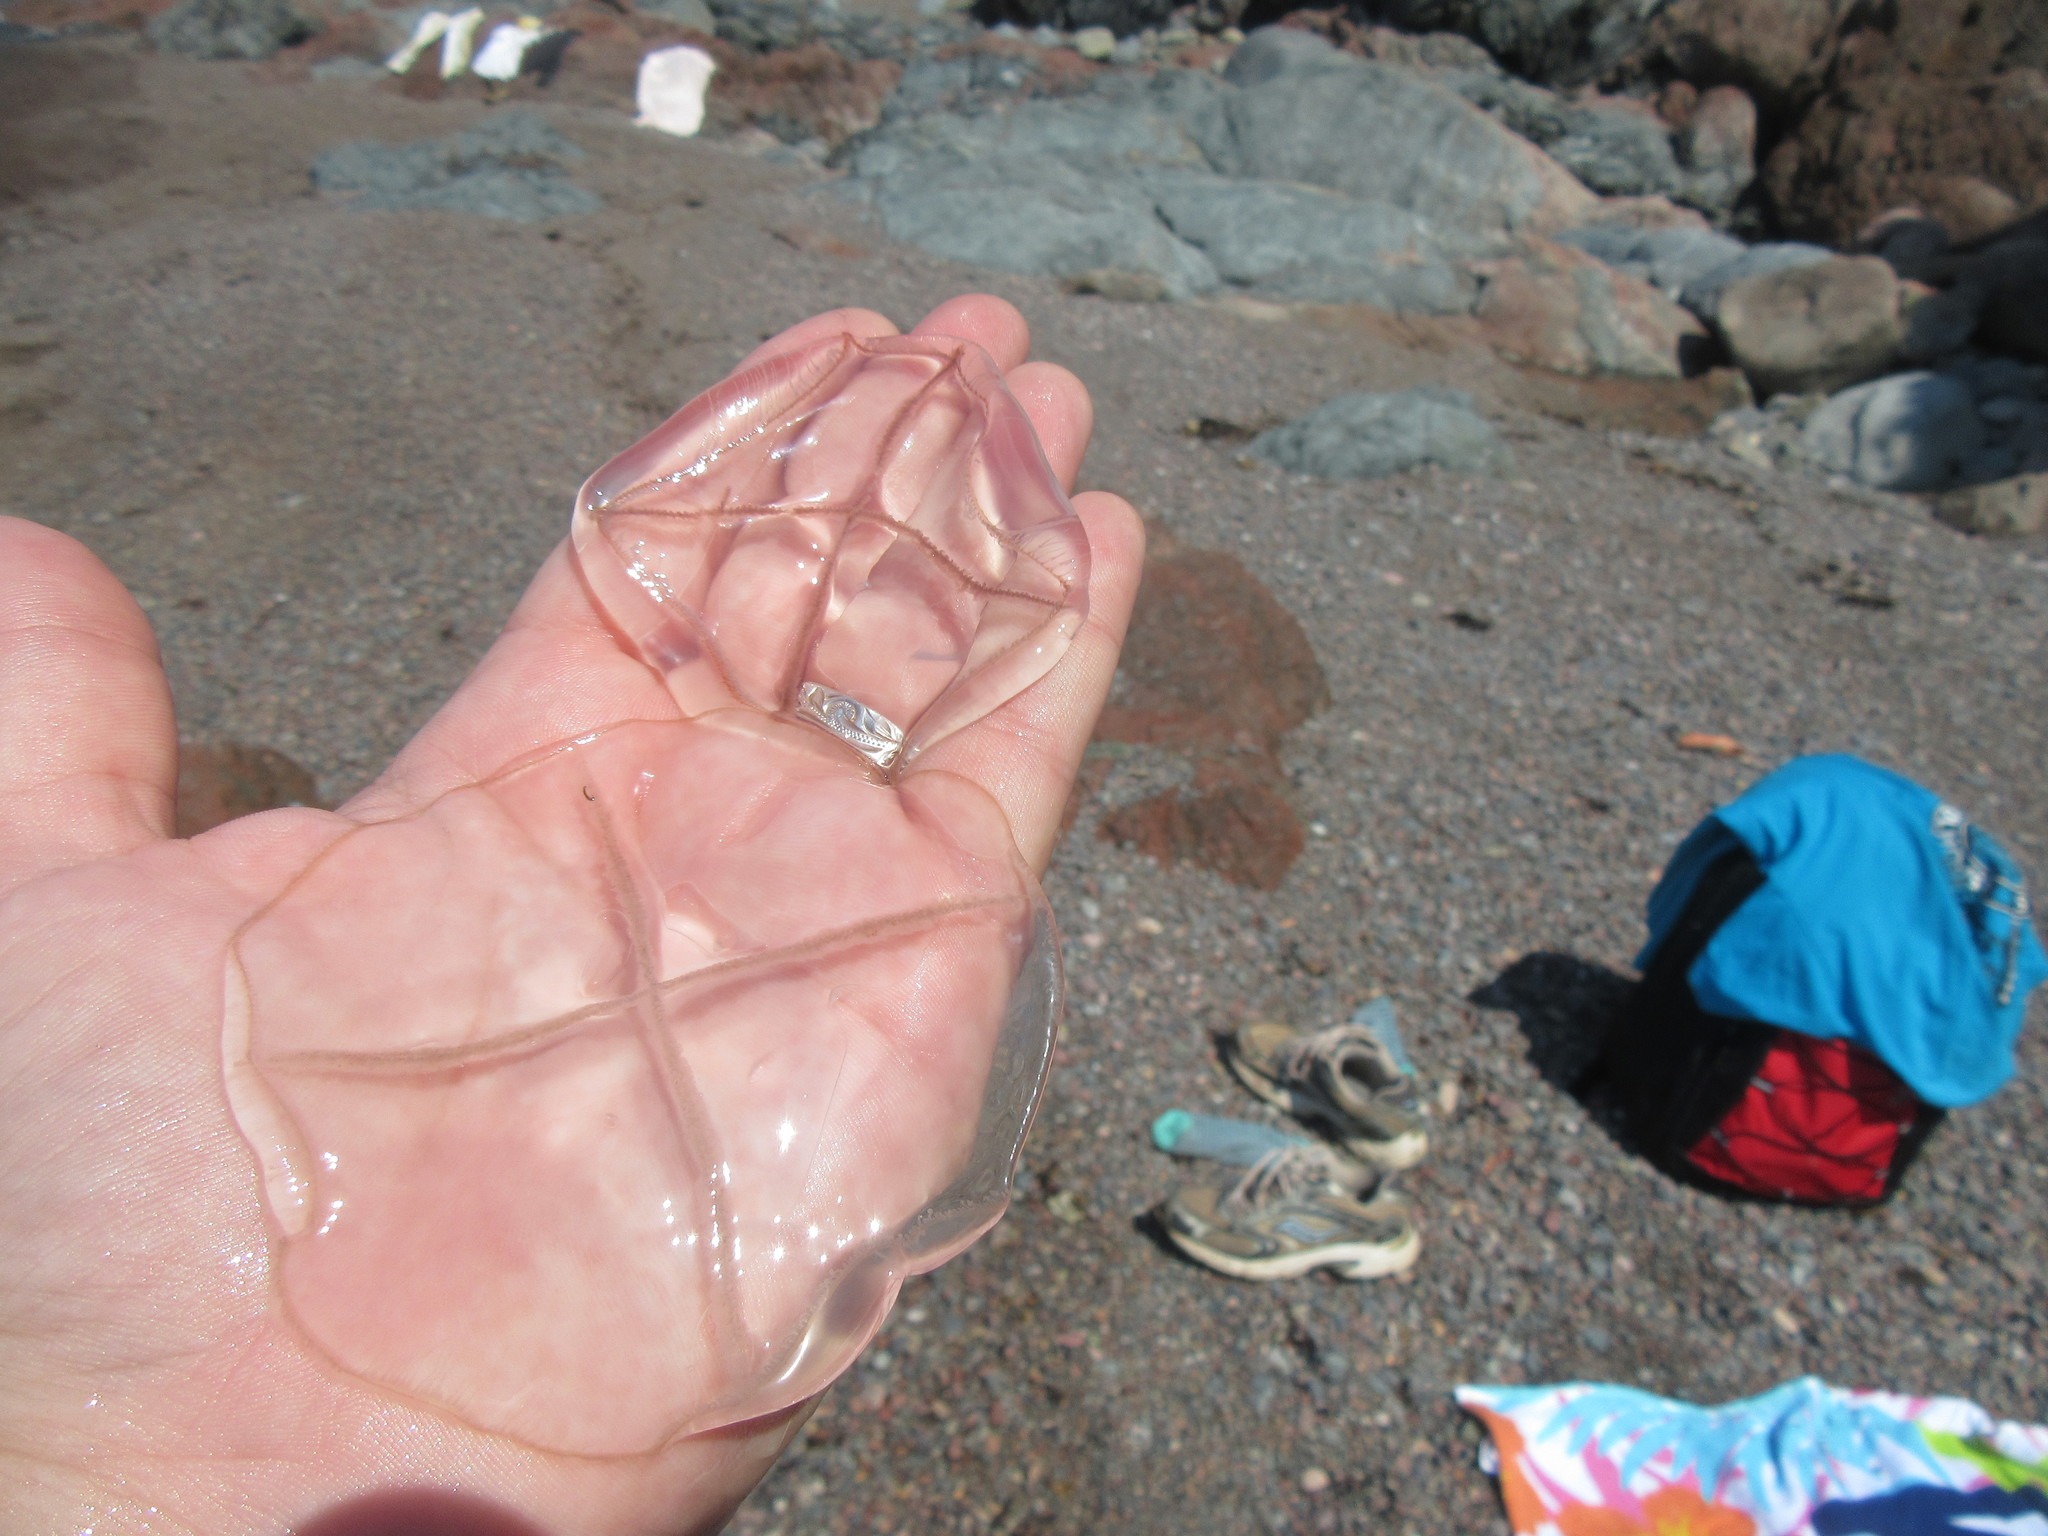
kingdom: Animalia
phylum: Cnidaria
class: Hydrozoa
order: Leptothecata
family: Laodiceidae
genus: Staurostoma
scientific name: Staurostoma mertensii
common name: Whitecross jellyfish
